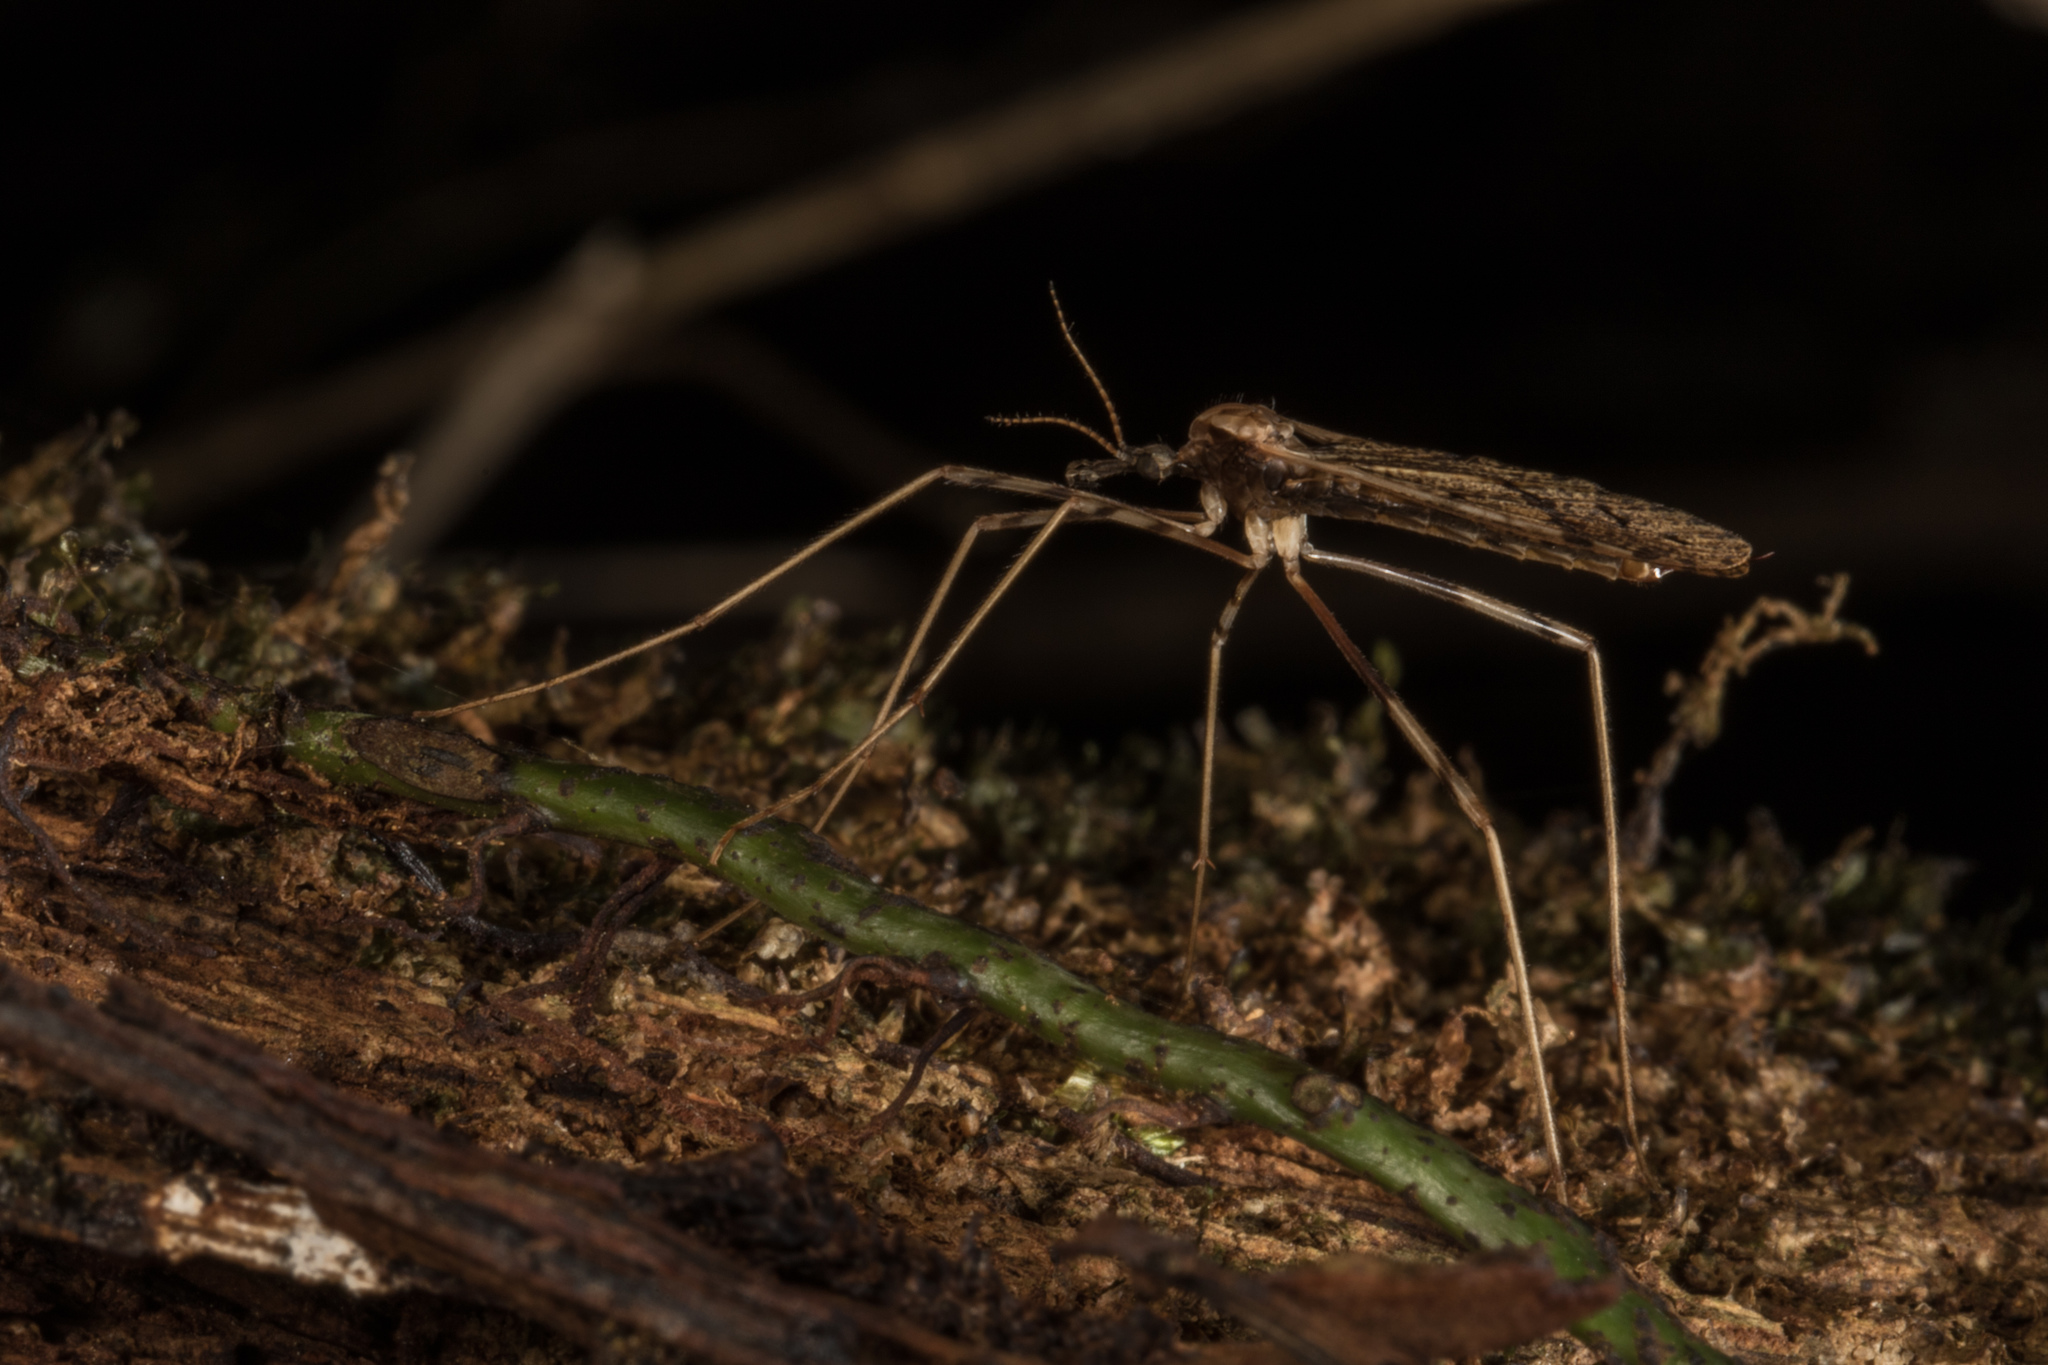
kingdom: Animalia
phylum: Arthropoda
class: Insecta
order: Diptera
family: Limoniidae
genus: Rhamphophila
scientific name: Rhamphophila sinistra
